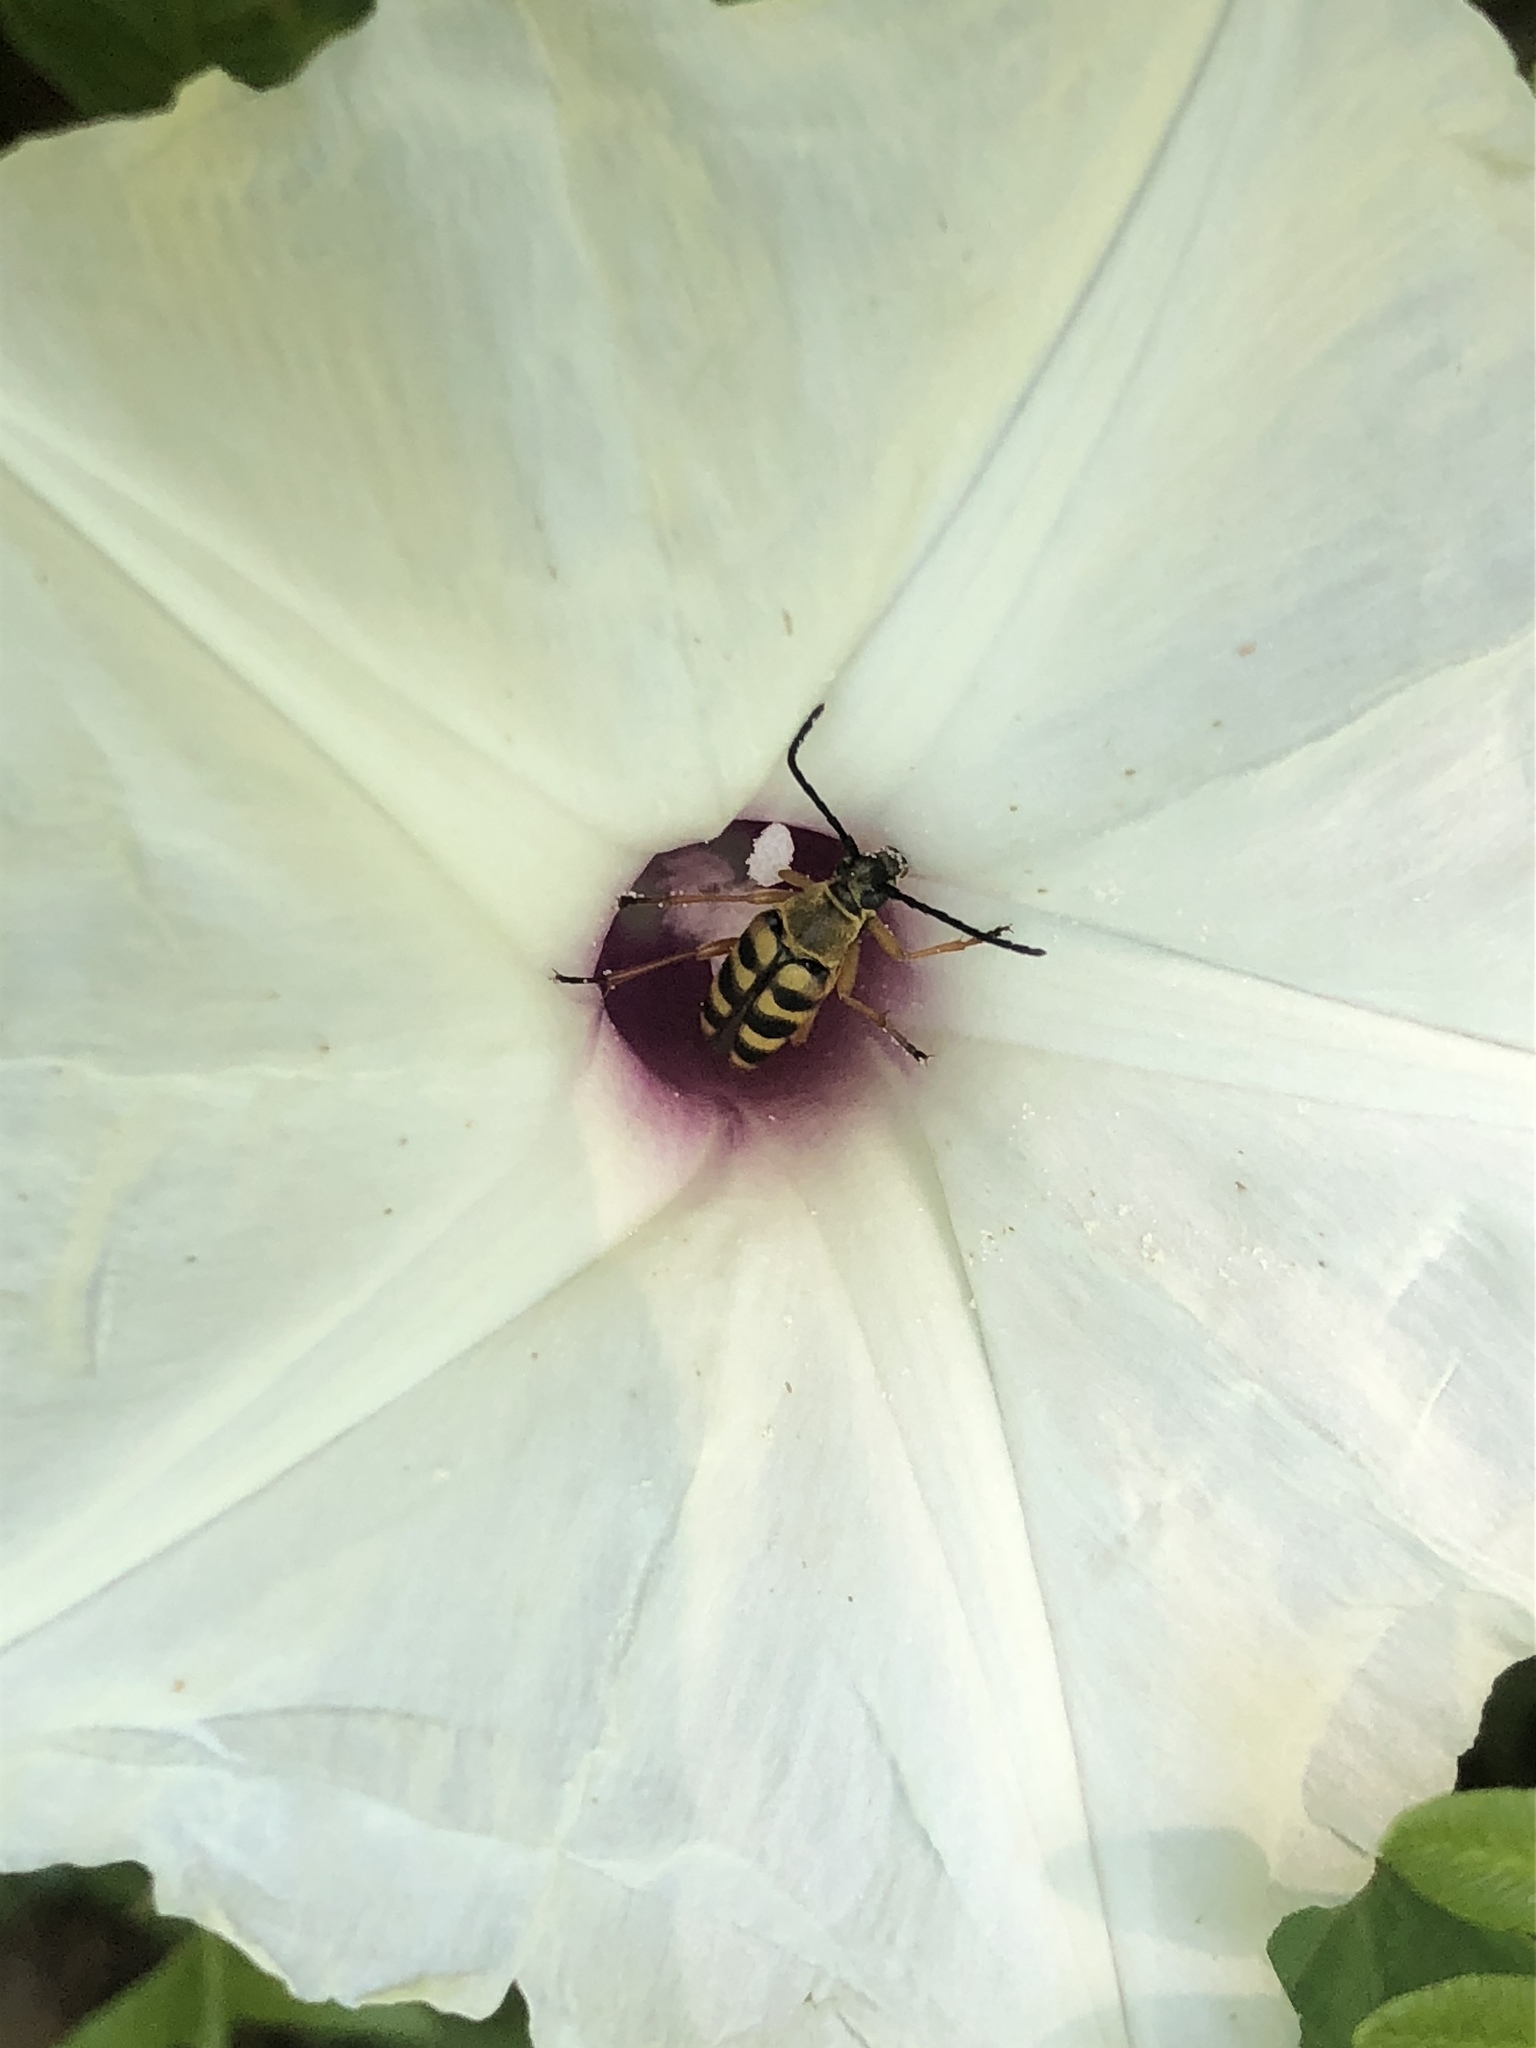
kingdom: Animalia
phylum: Arthropoda
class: Insecta
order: Coleoptera
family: Cerambycidae
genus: Typocerus
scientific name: Typocerus zebra
